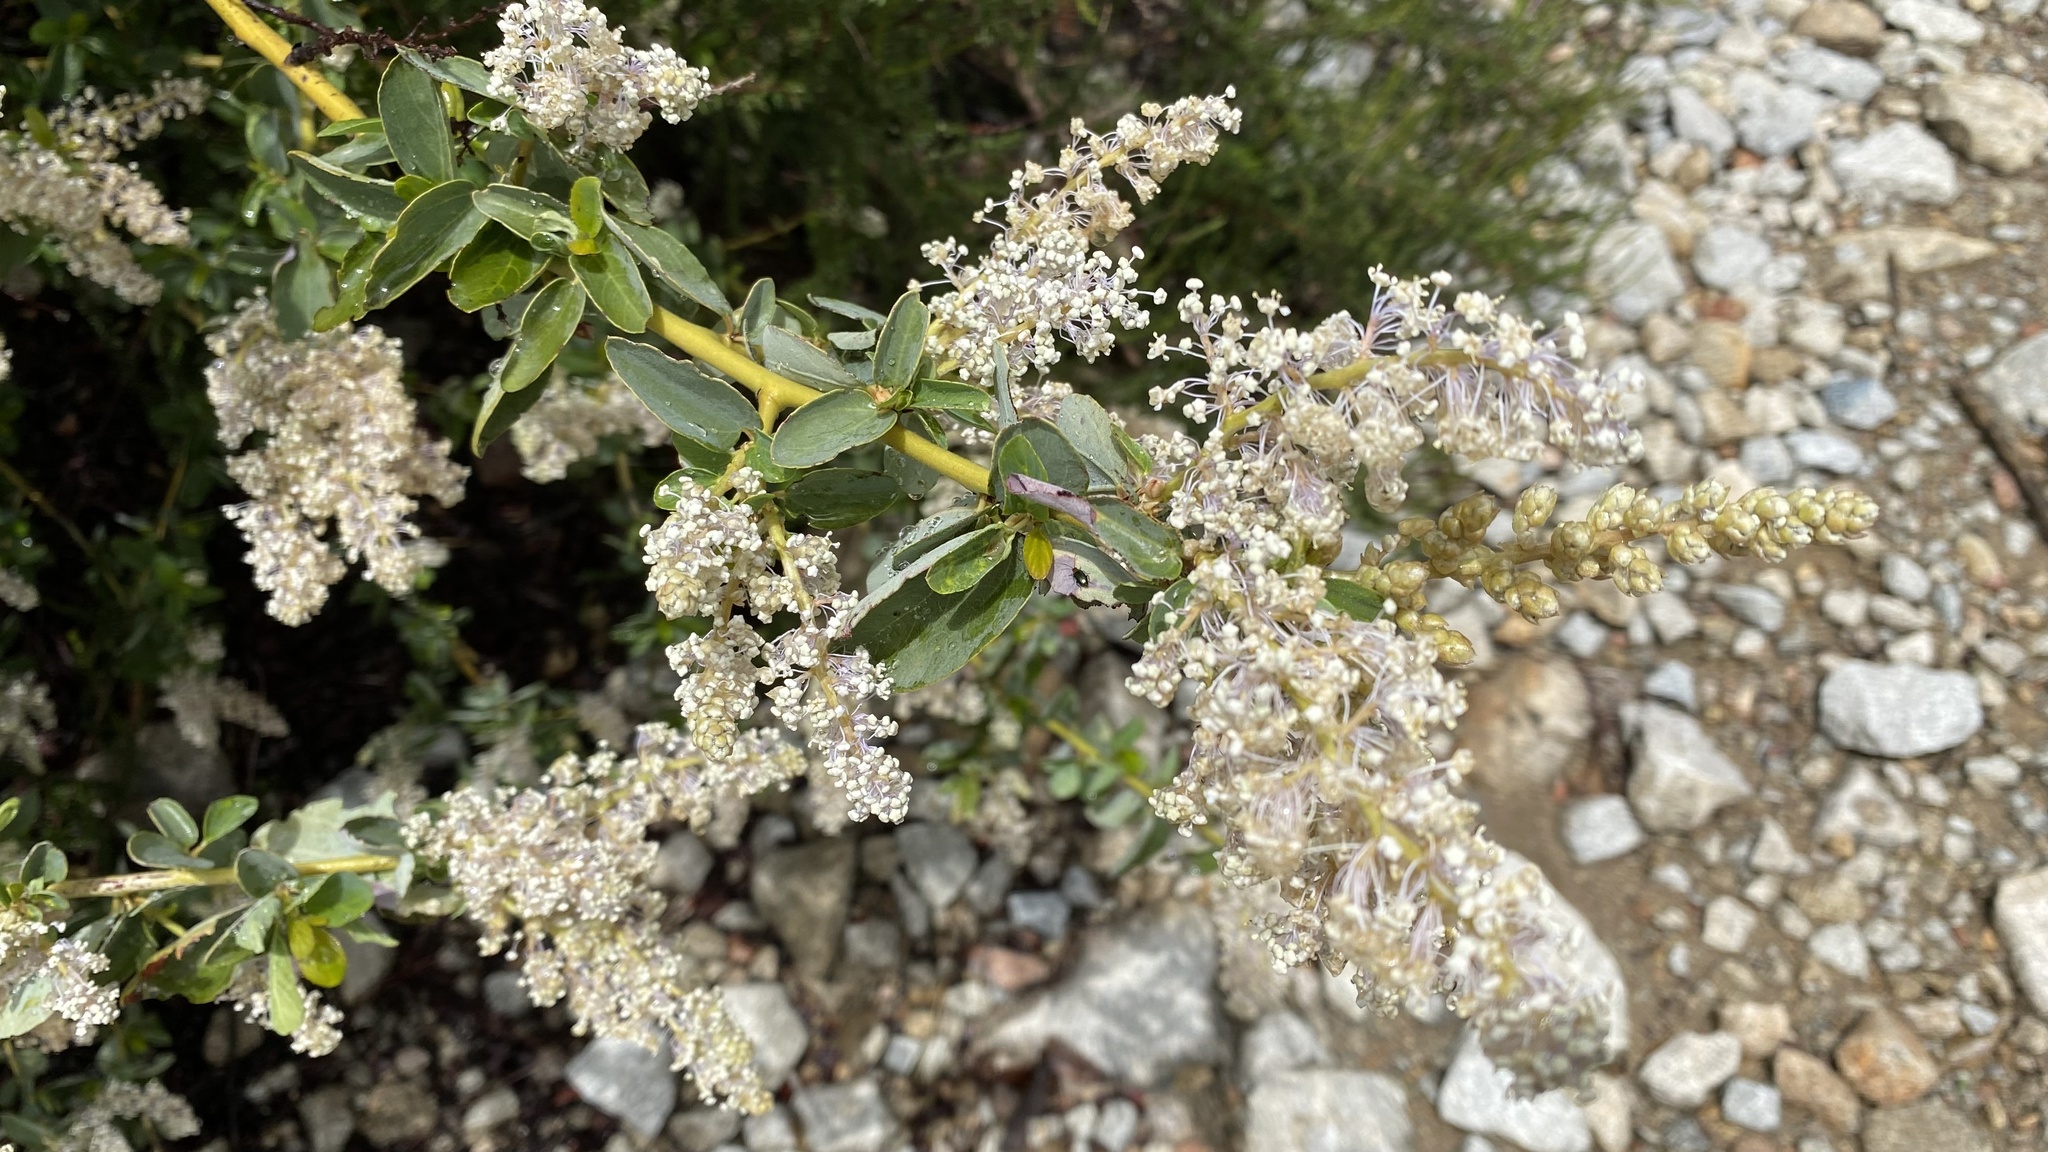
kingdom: Plantae
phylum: Tracheophyta
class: Magnoliopsida
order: Rosales
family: Rhamnaceae
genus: Ceanothus
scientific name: Ceanothus leucodermis
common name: Chaparral whitethorn
